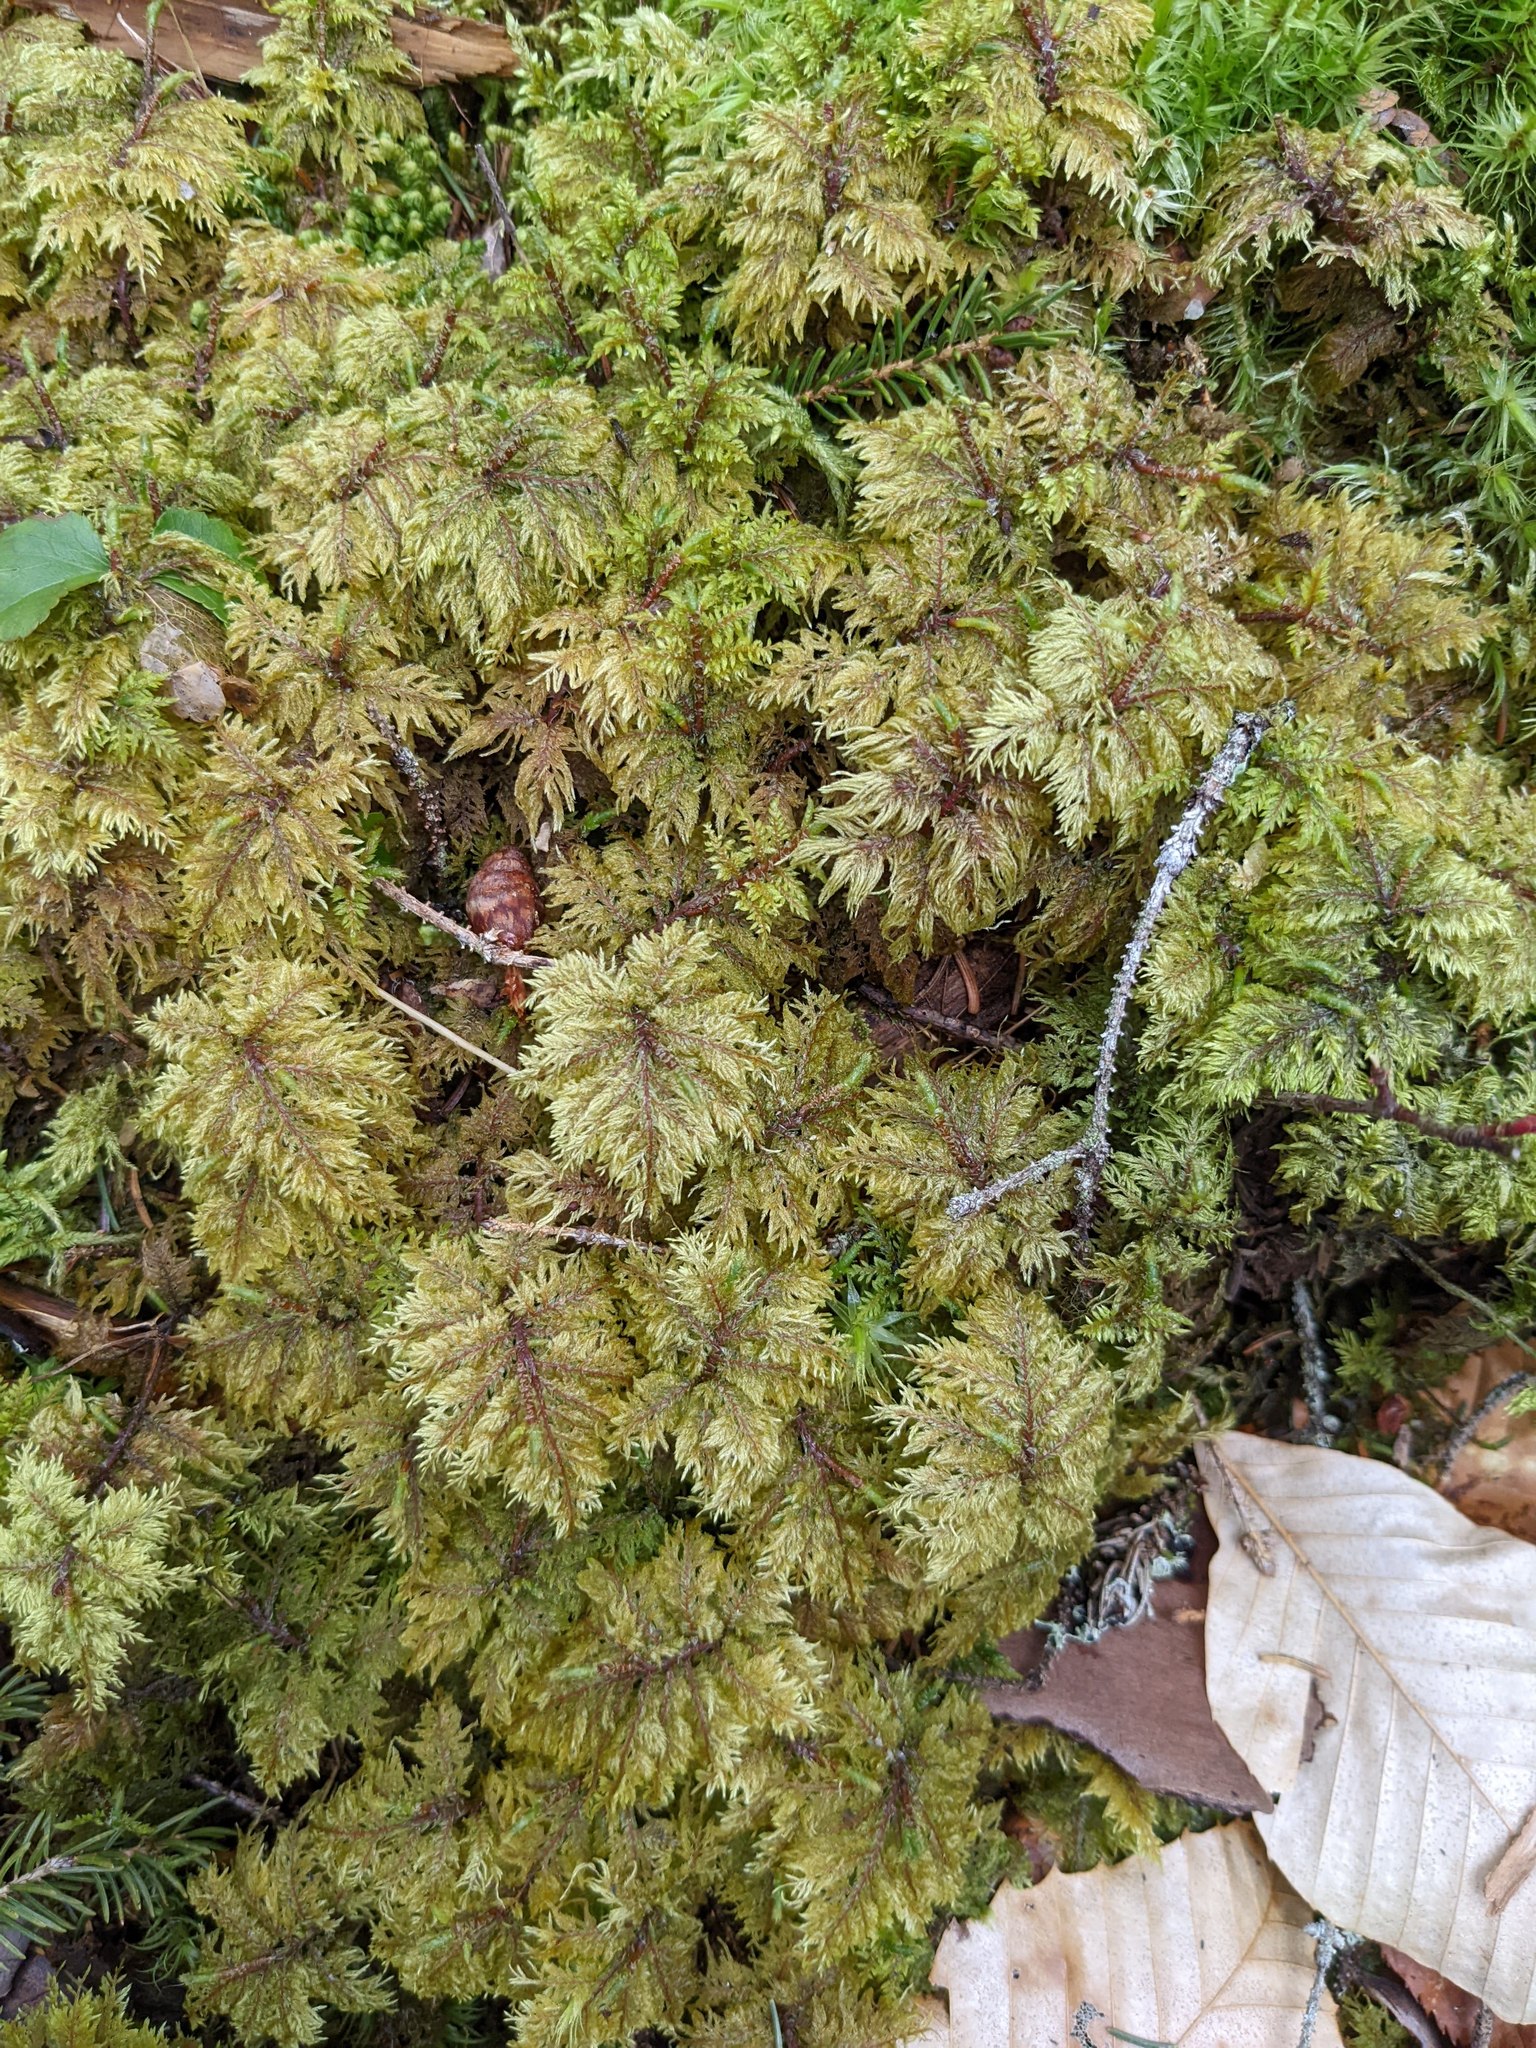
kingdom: Plantae
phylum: Bryophyta
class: Bryopsida
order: Hypnales
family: Hylocomiaceae
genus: Hylocomium
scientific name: Hylocomium splendens
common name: Stairstep moss
